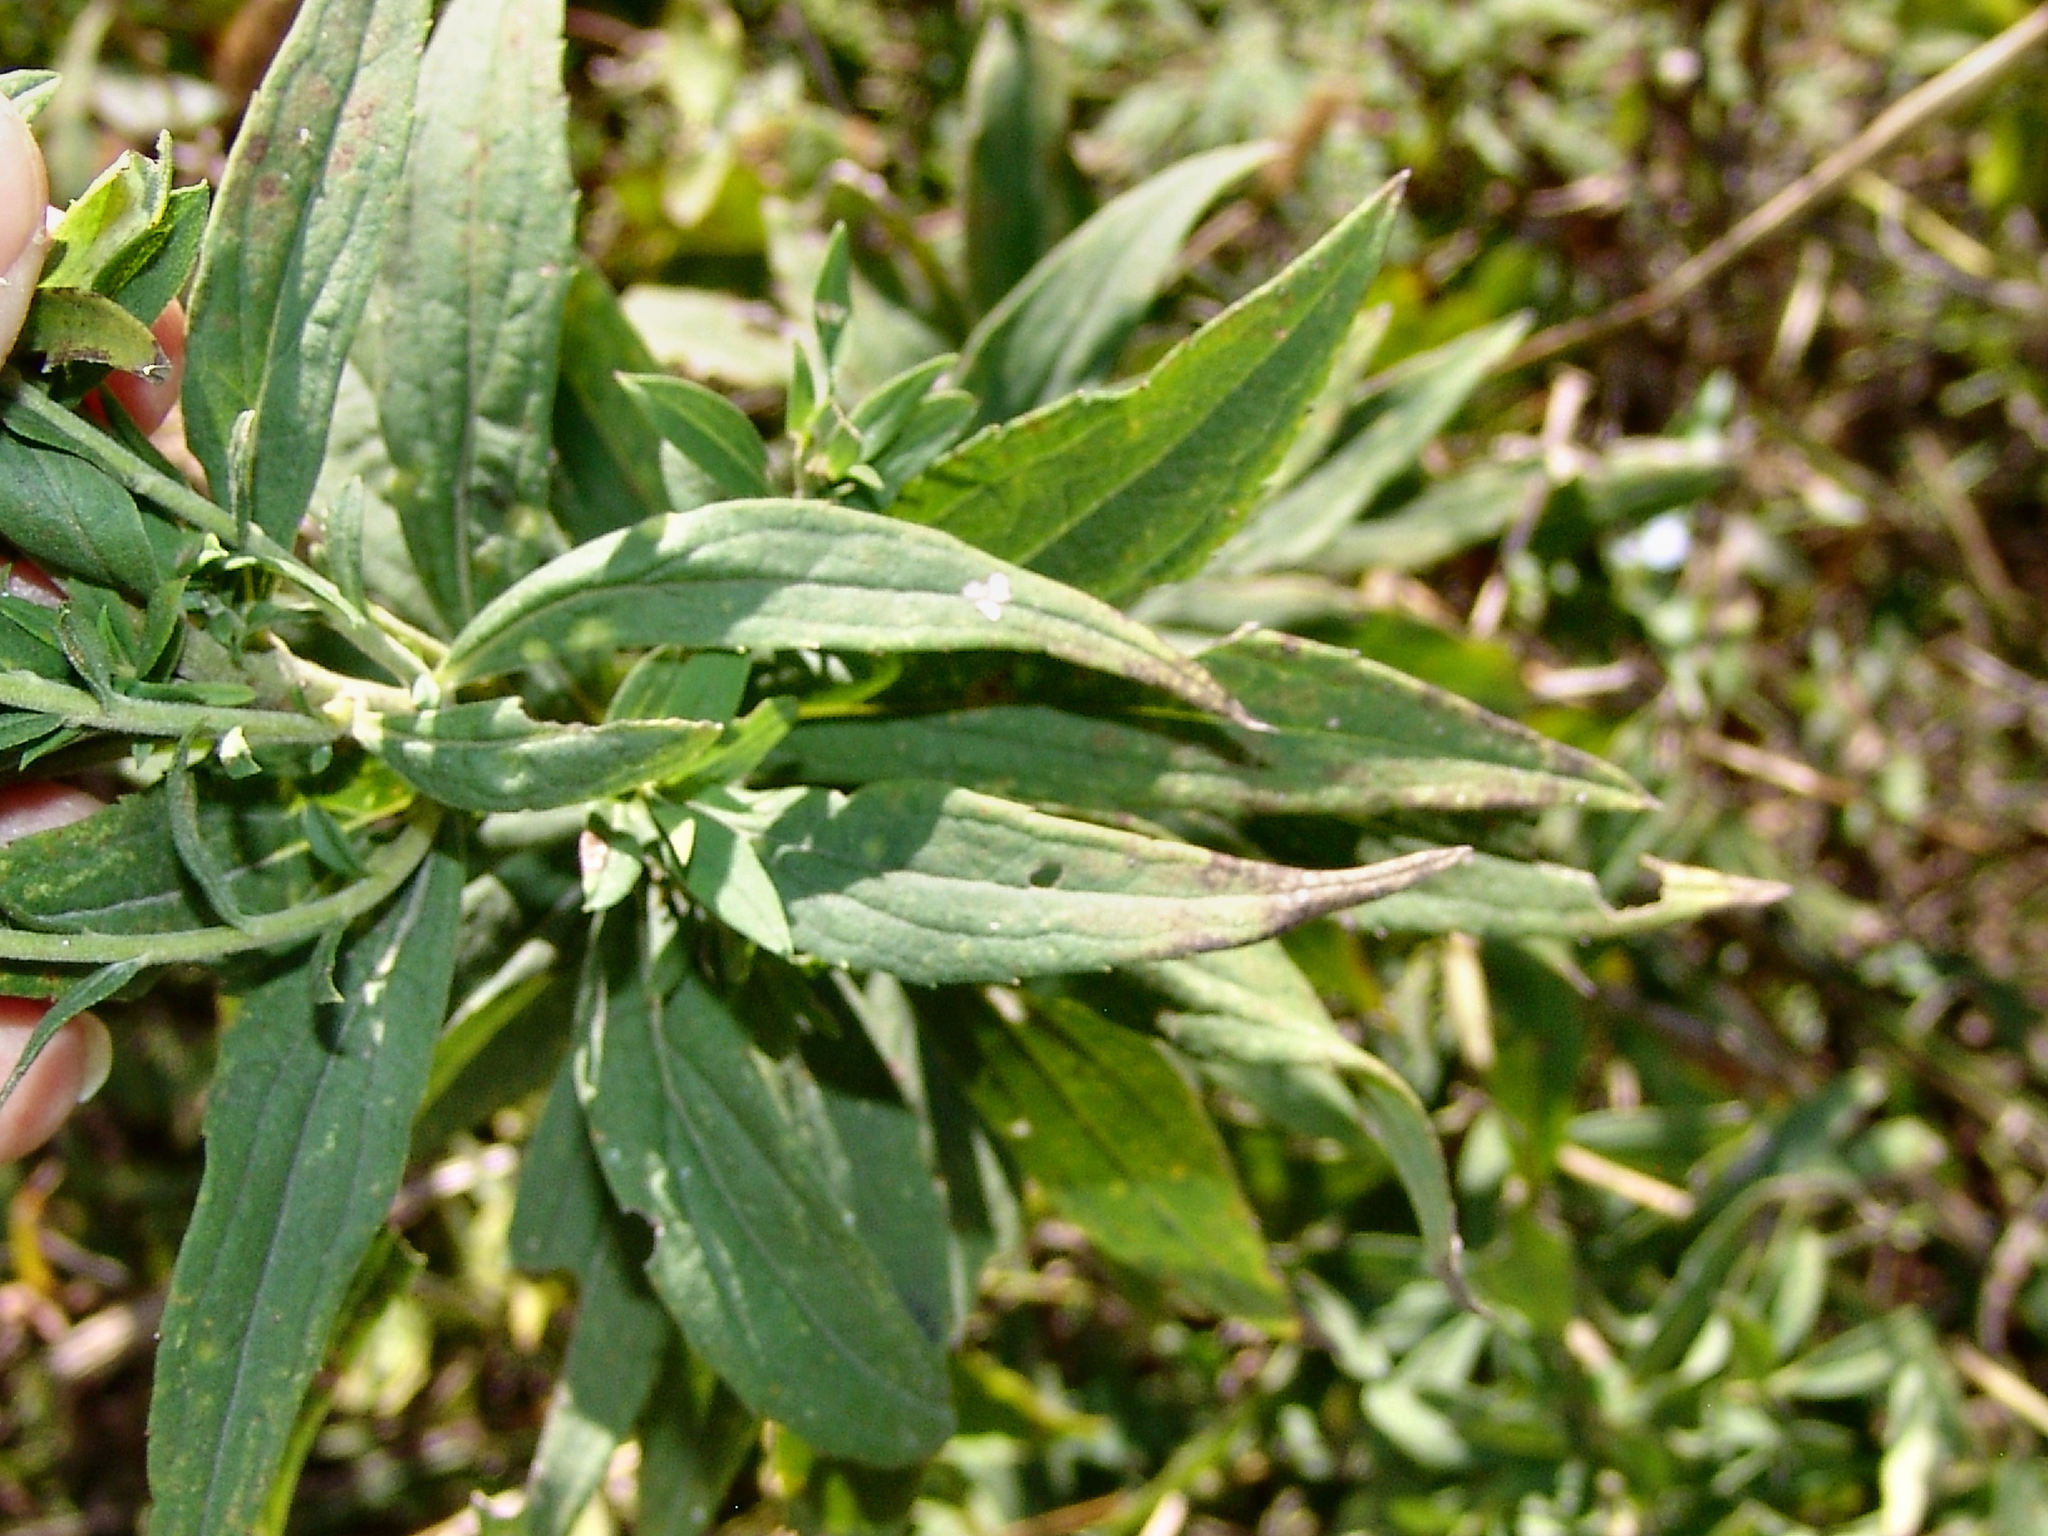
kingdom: Plantae
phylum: Tracheophyta
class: Magnoliopsida
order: Asterales
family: Asteraceae
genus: Solidago
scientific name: Solidago altissima
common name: Late goldenrod
